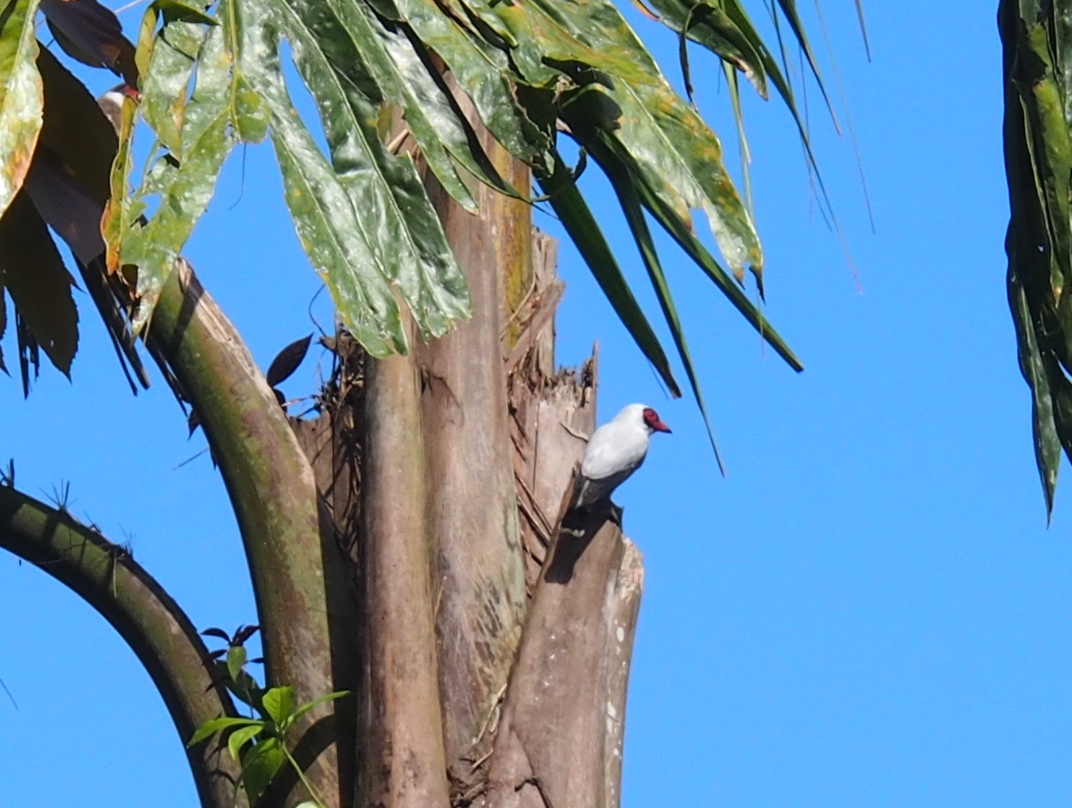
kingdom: Animalia
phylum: Chordata
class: Aves
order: Passeriformes
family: Cotingidae
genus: Tityra
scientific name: Tityra semifasciata
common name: Masked tityra
